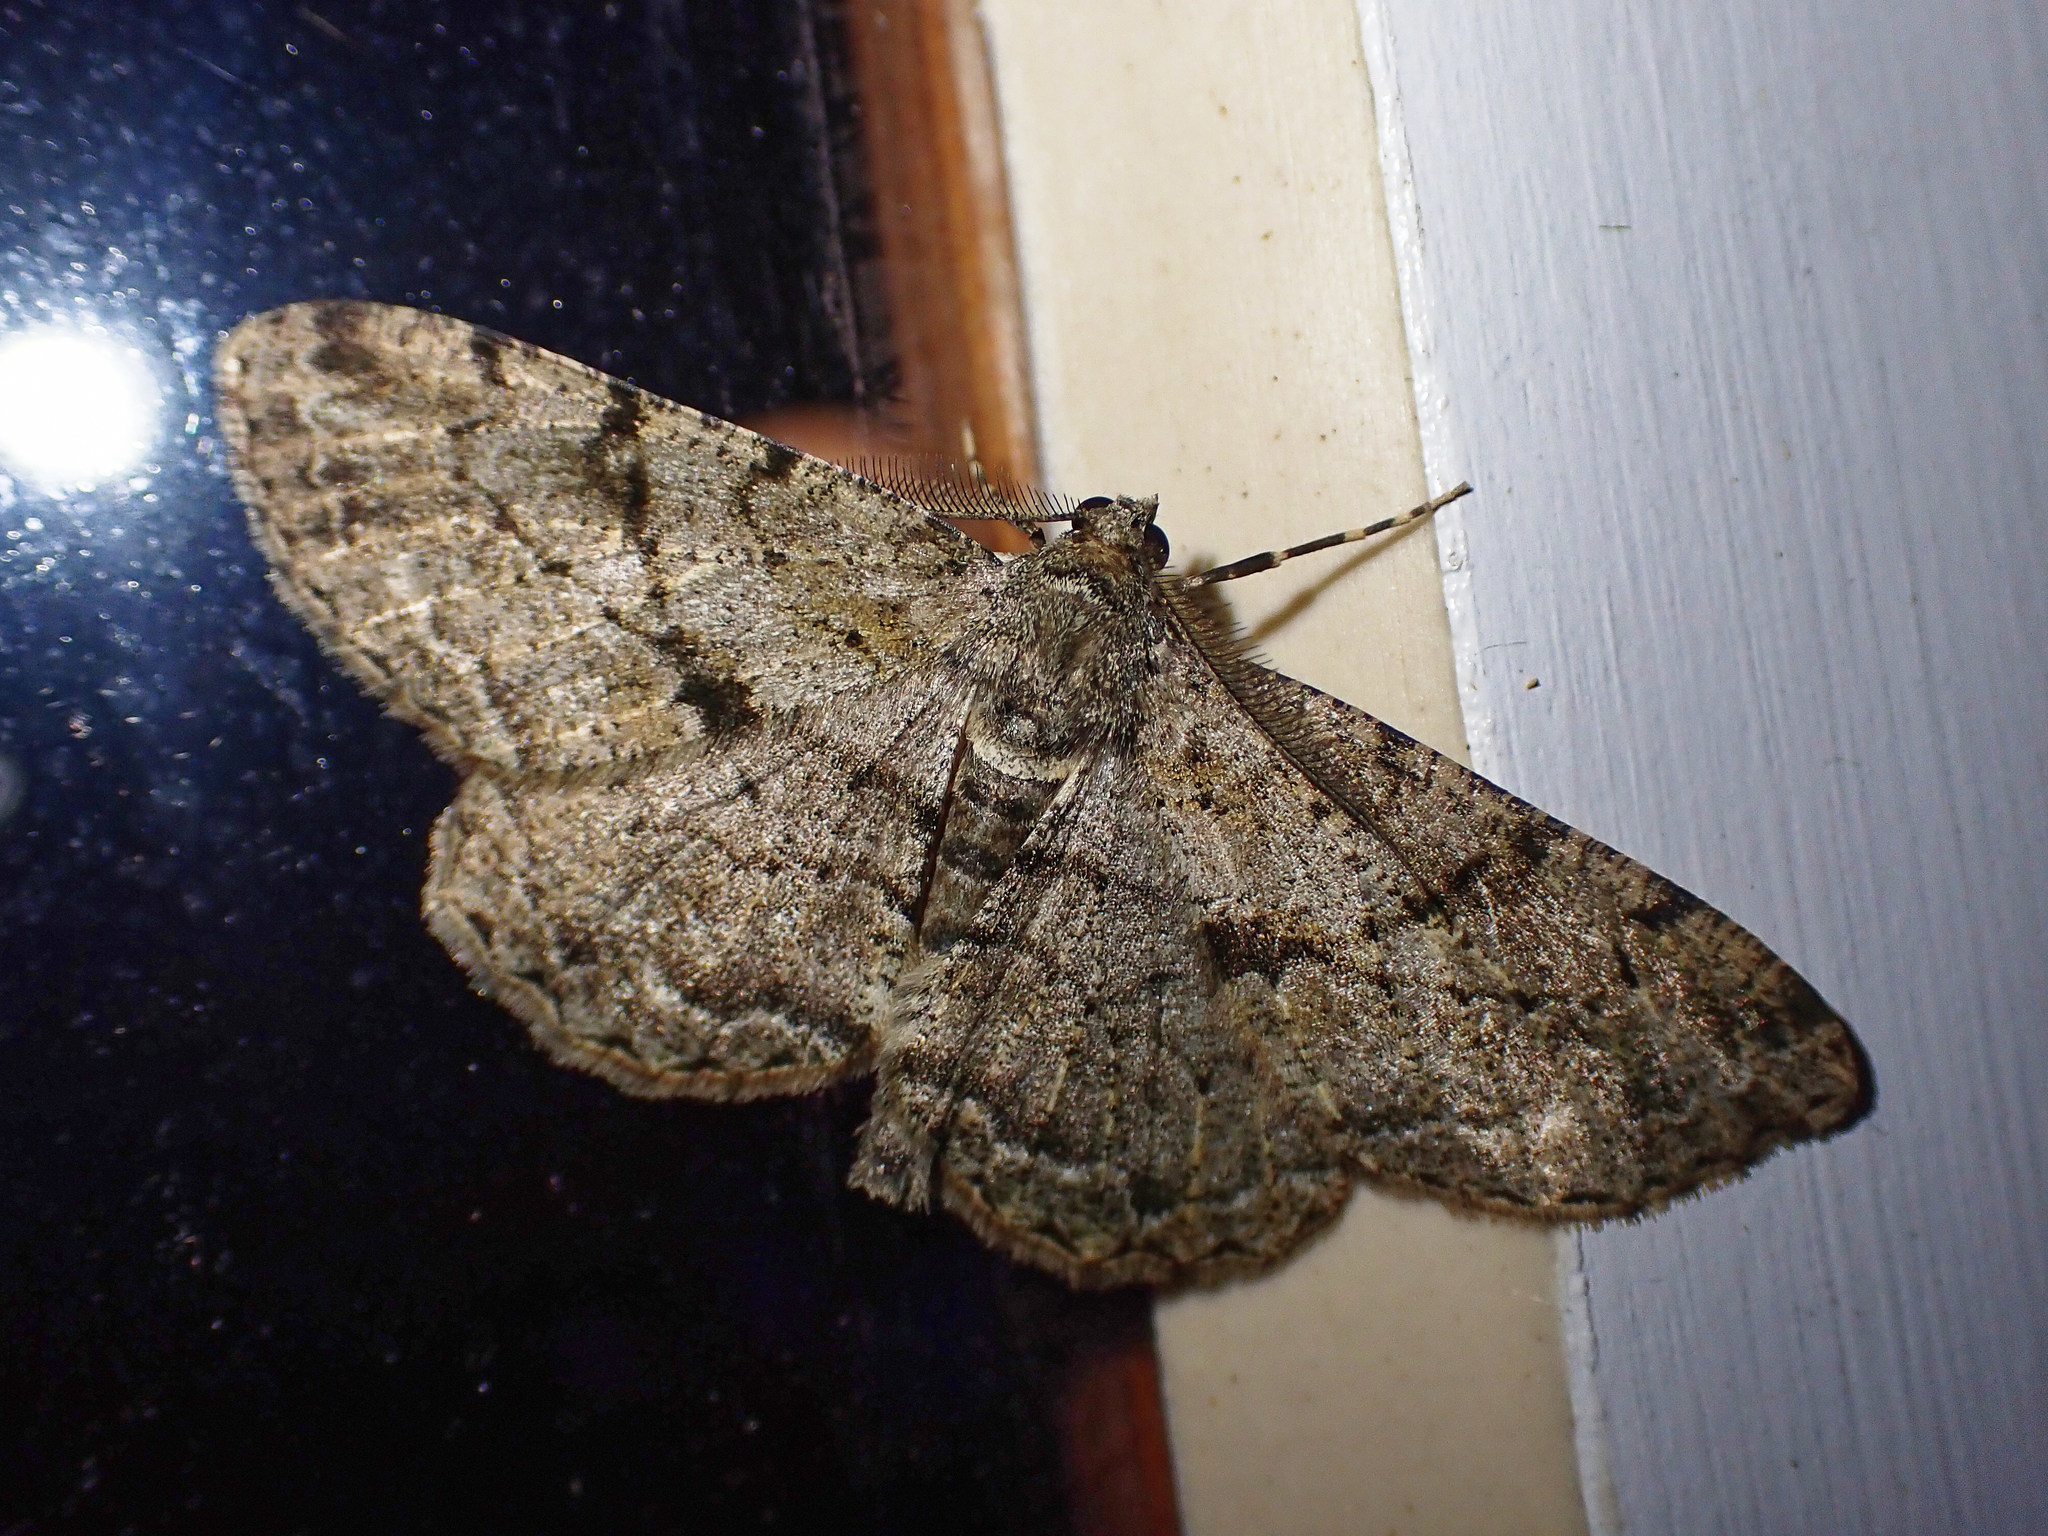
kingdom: Animalia
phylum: Arthropoda
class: Insecta
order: Lepidoptera
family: Geometridae
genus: Peribatodes
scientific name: Peribatodes rhomboidaria
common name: Willow beauty
